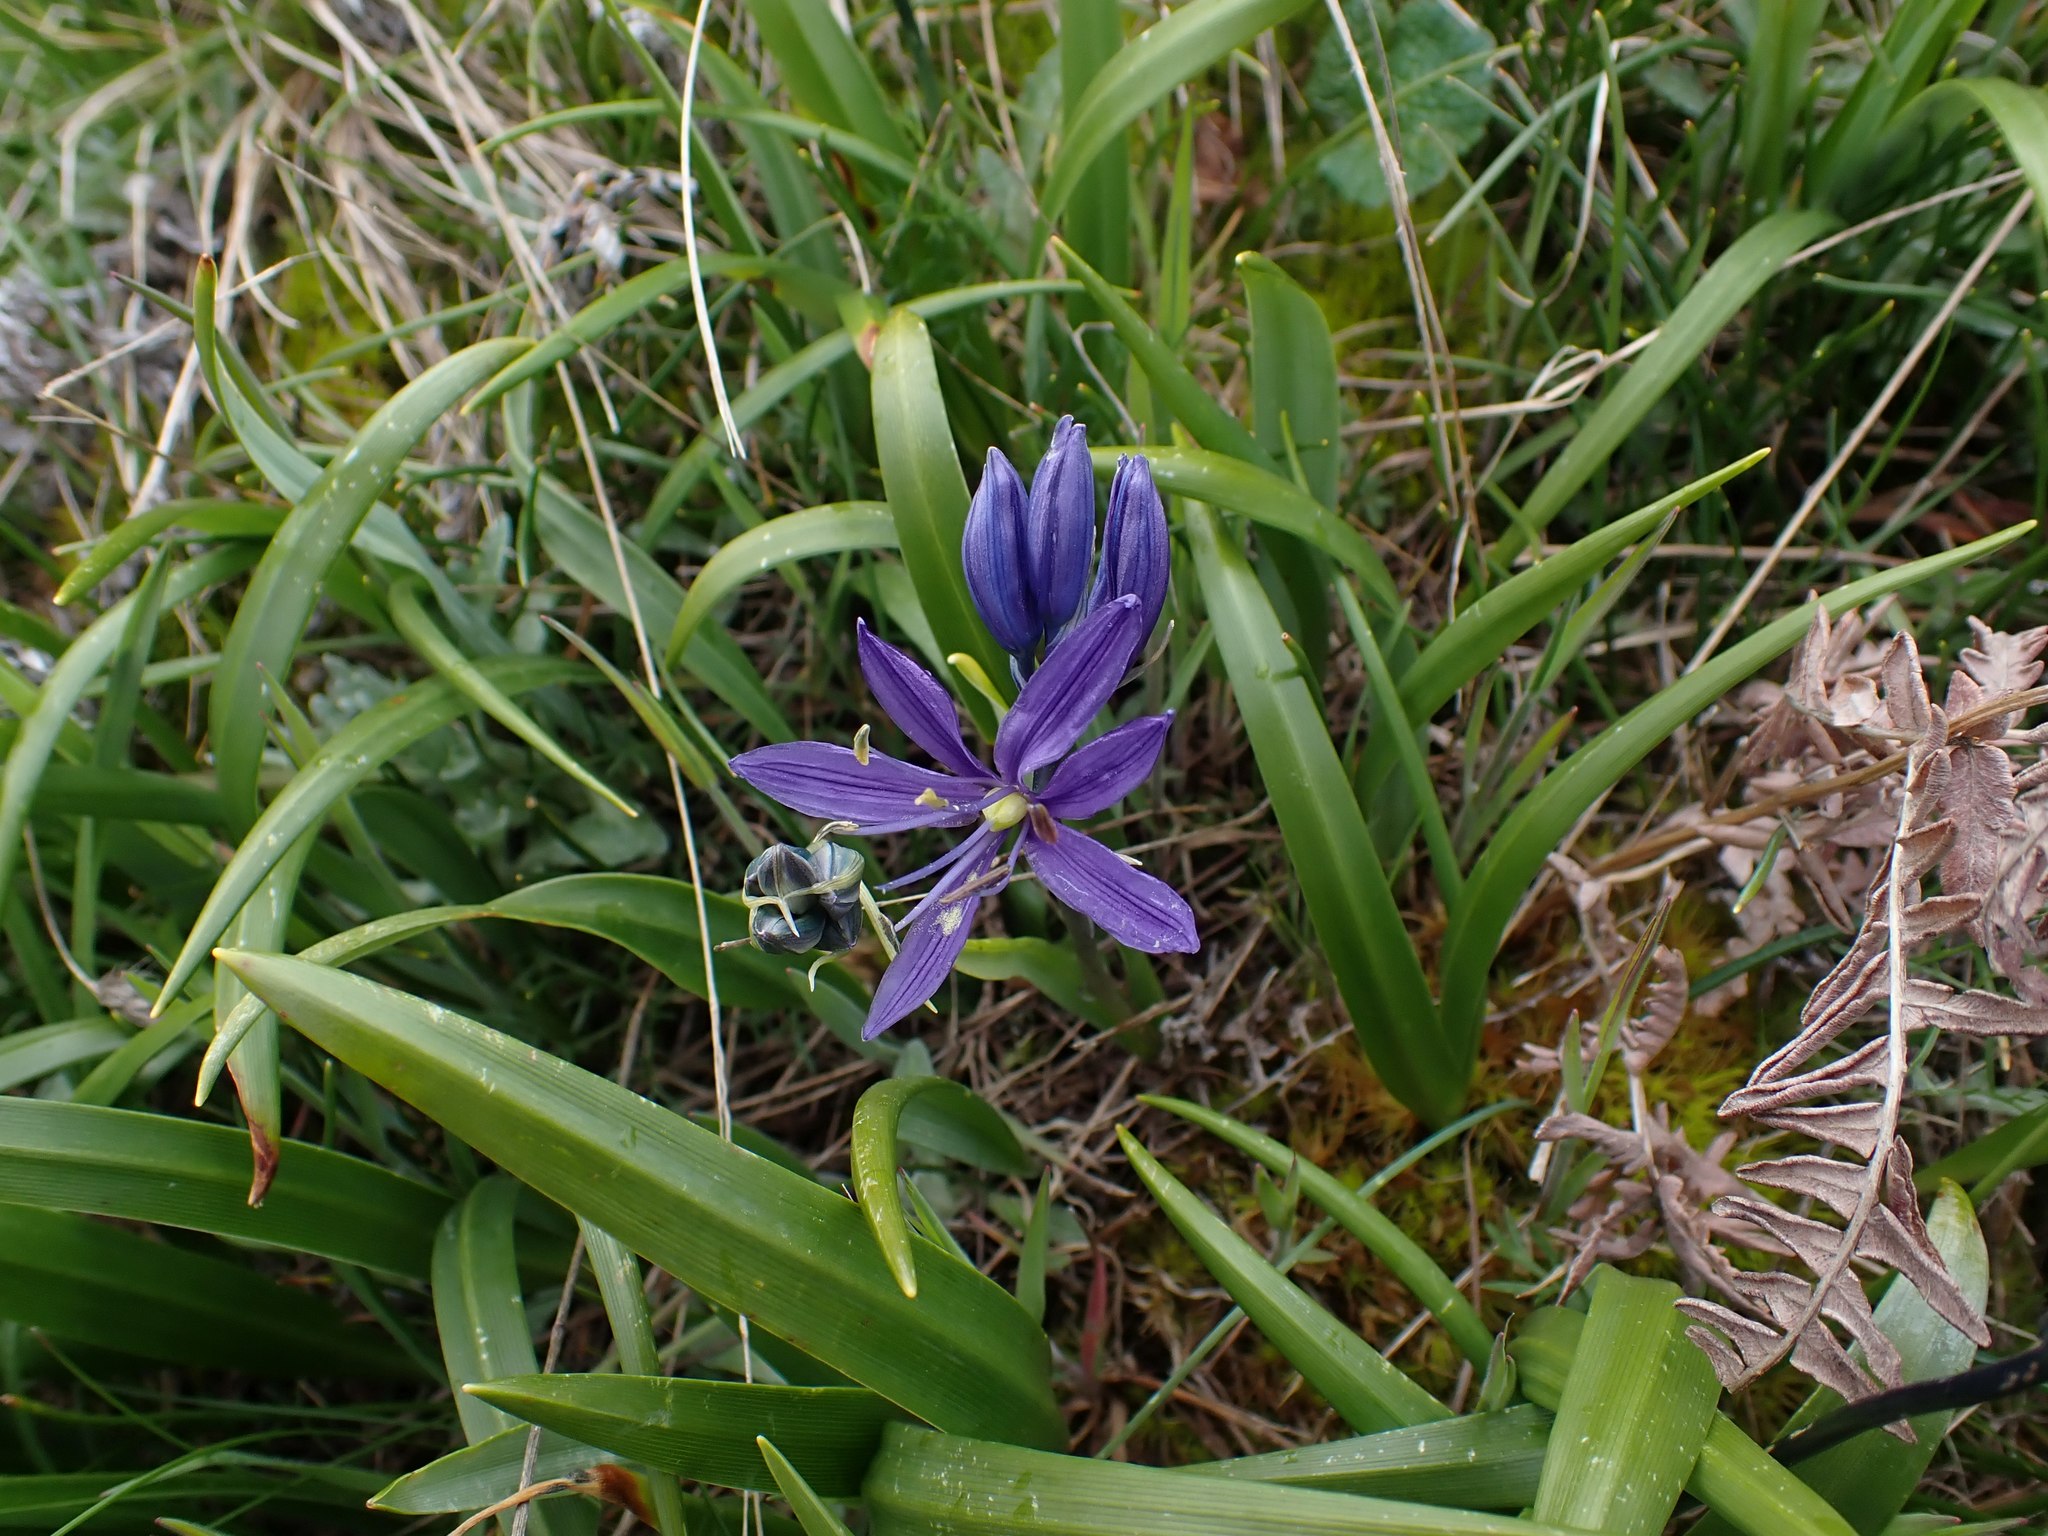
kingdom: Plantae
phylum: Tracheophyta
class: Liliopsida
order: Asparagales
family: Asparagaceae
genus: Camassia
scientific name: Camassia quamash
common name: Common camas
